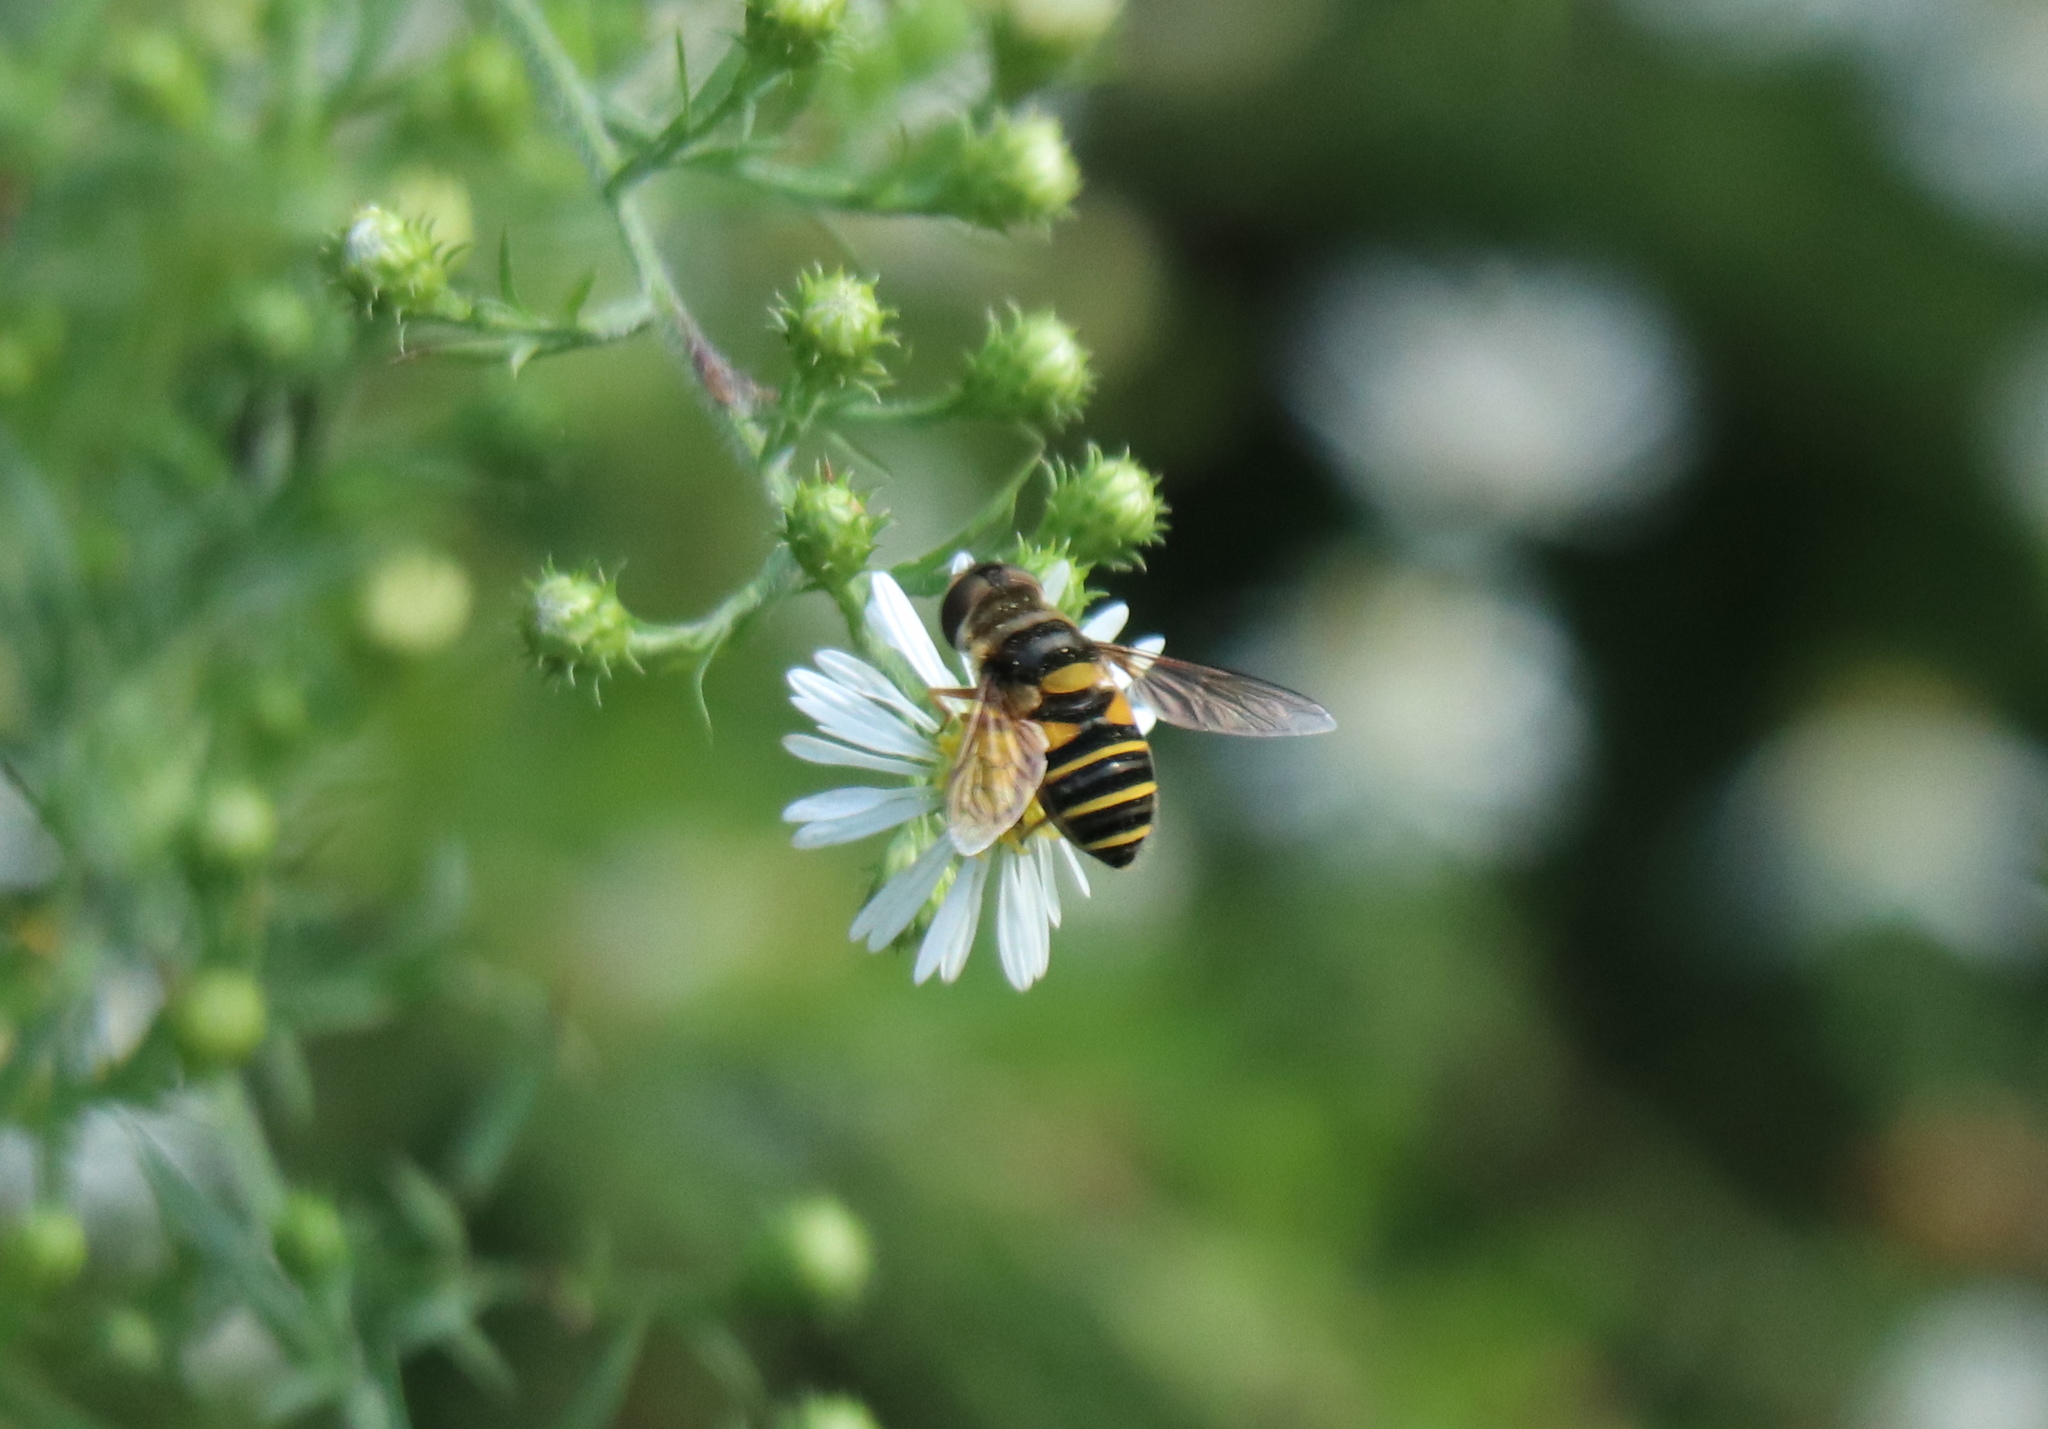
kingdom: Animalia
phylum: Arthropoda
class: Insecta
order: Diptera
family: Syrphidae
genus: Eristalis
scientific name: Eristalis transversa
